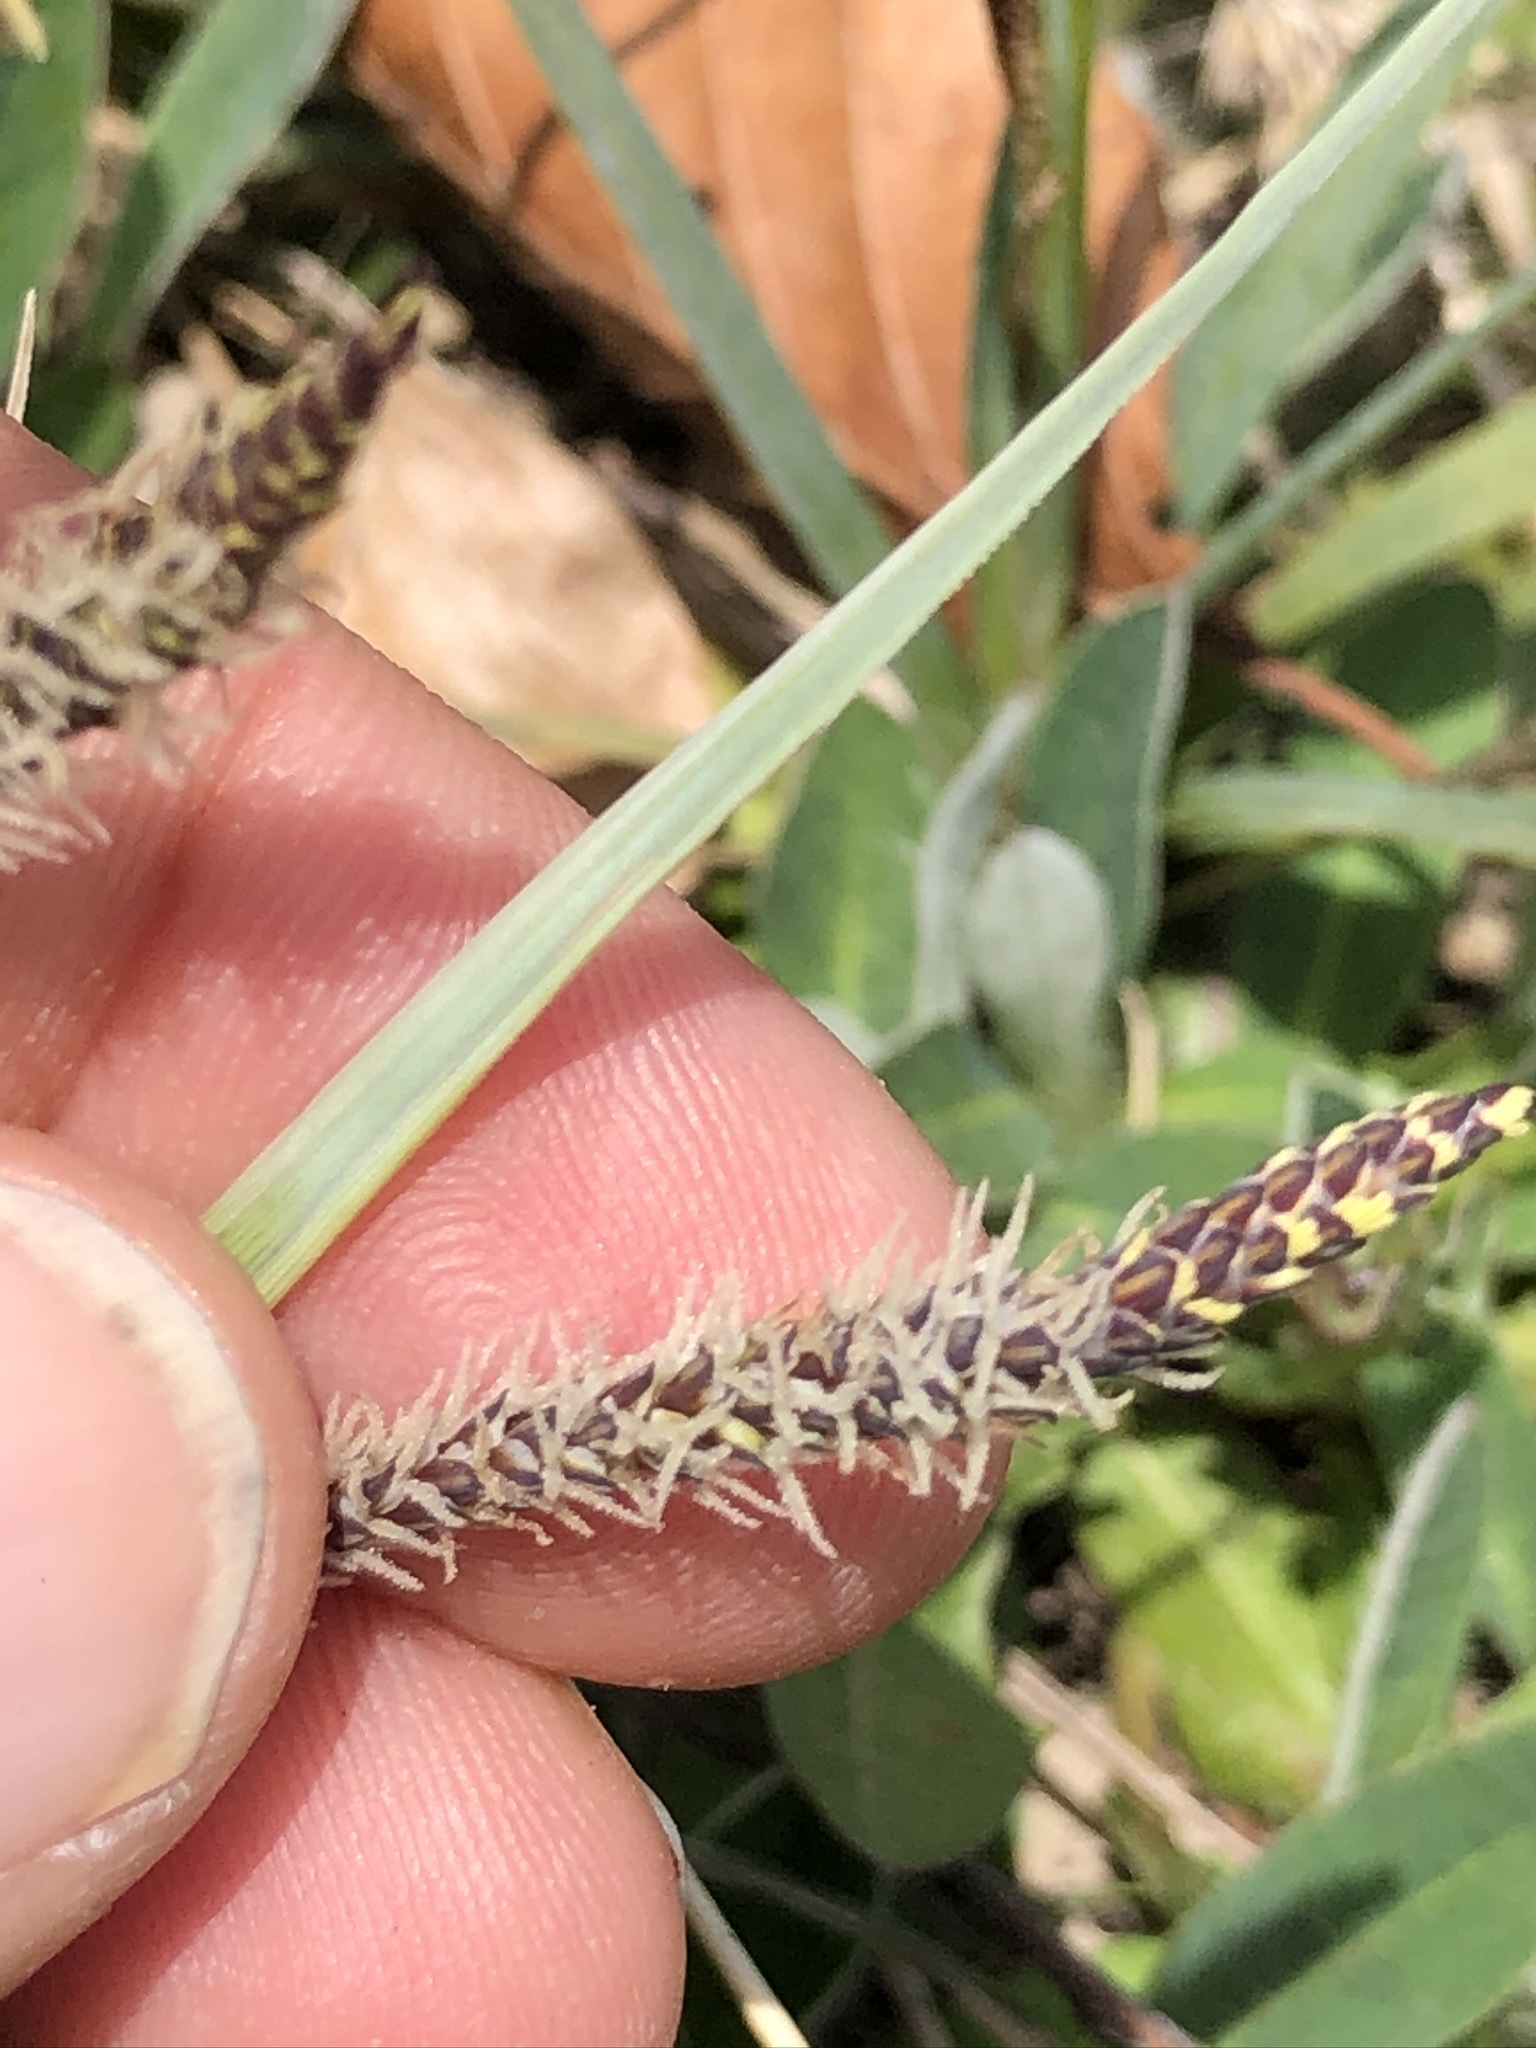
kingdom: Plantae
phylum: Tracheophyta
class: Liliopsida
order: Poales
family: Cyperaceae
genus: Carex
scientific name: Carex flacca
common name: Glaucous sedge
